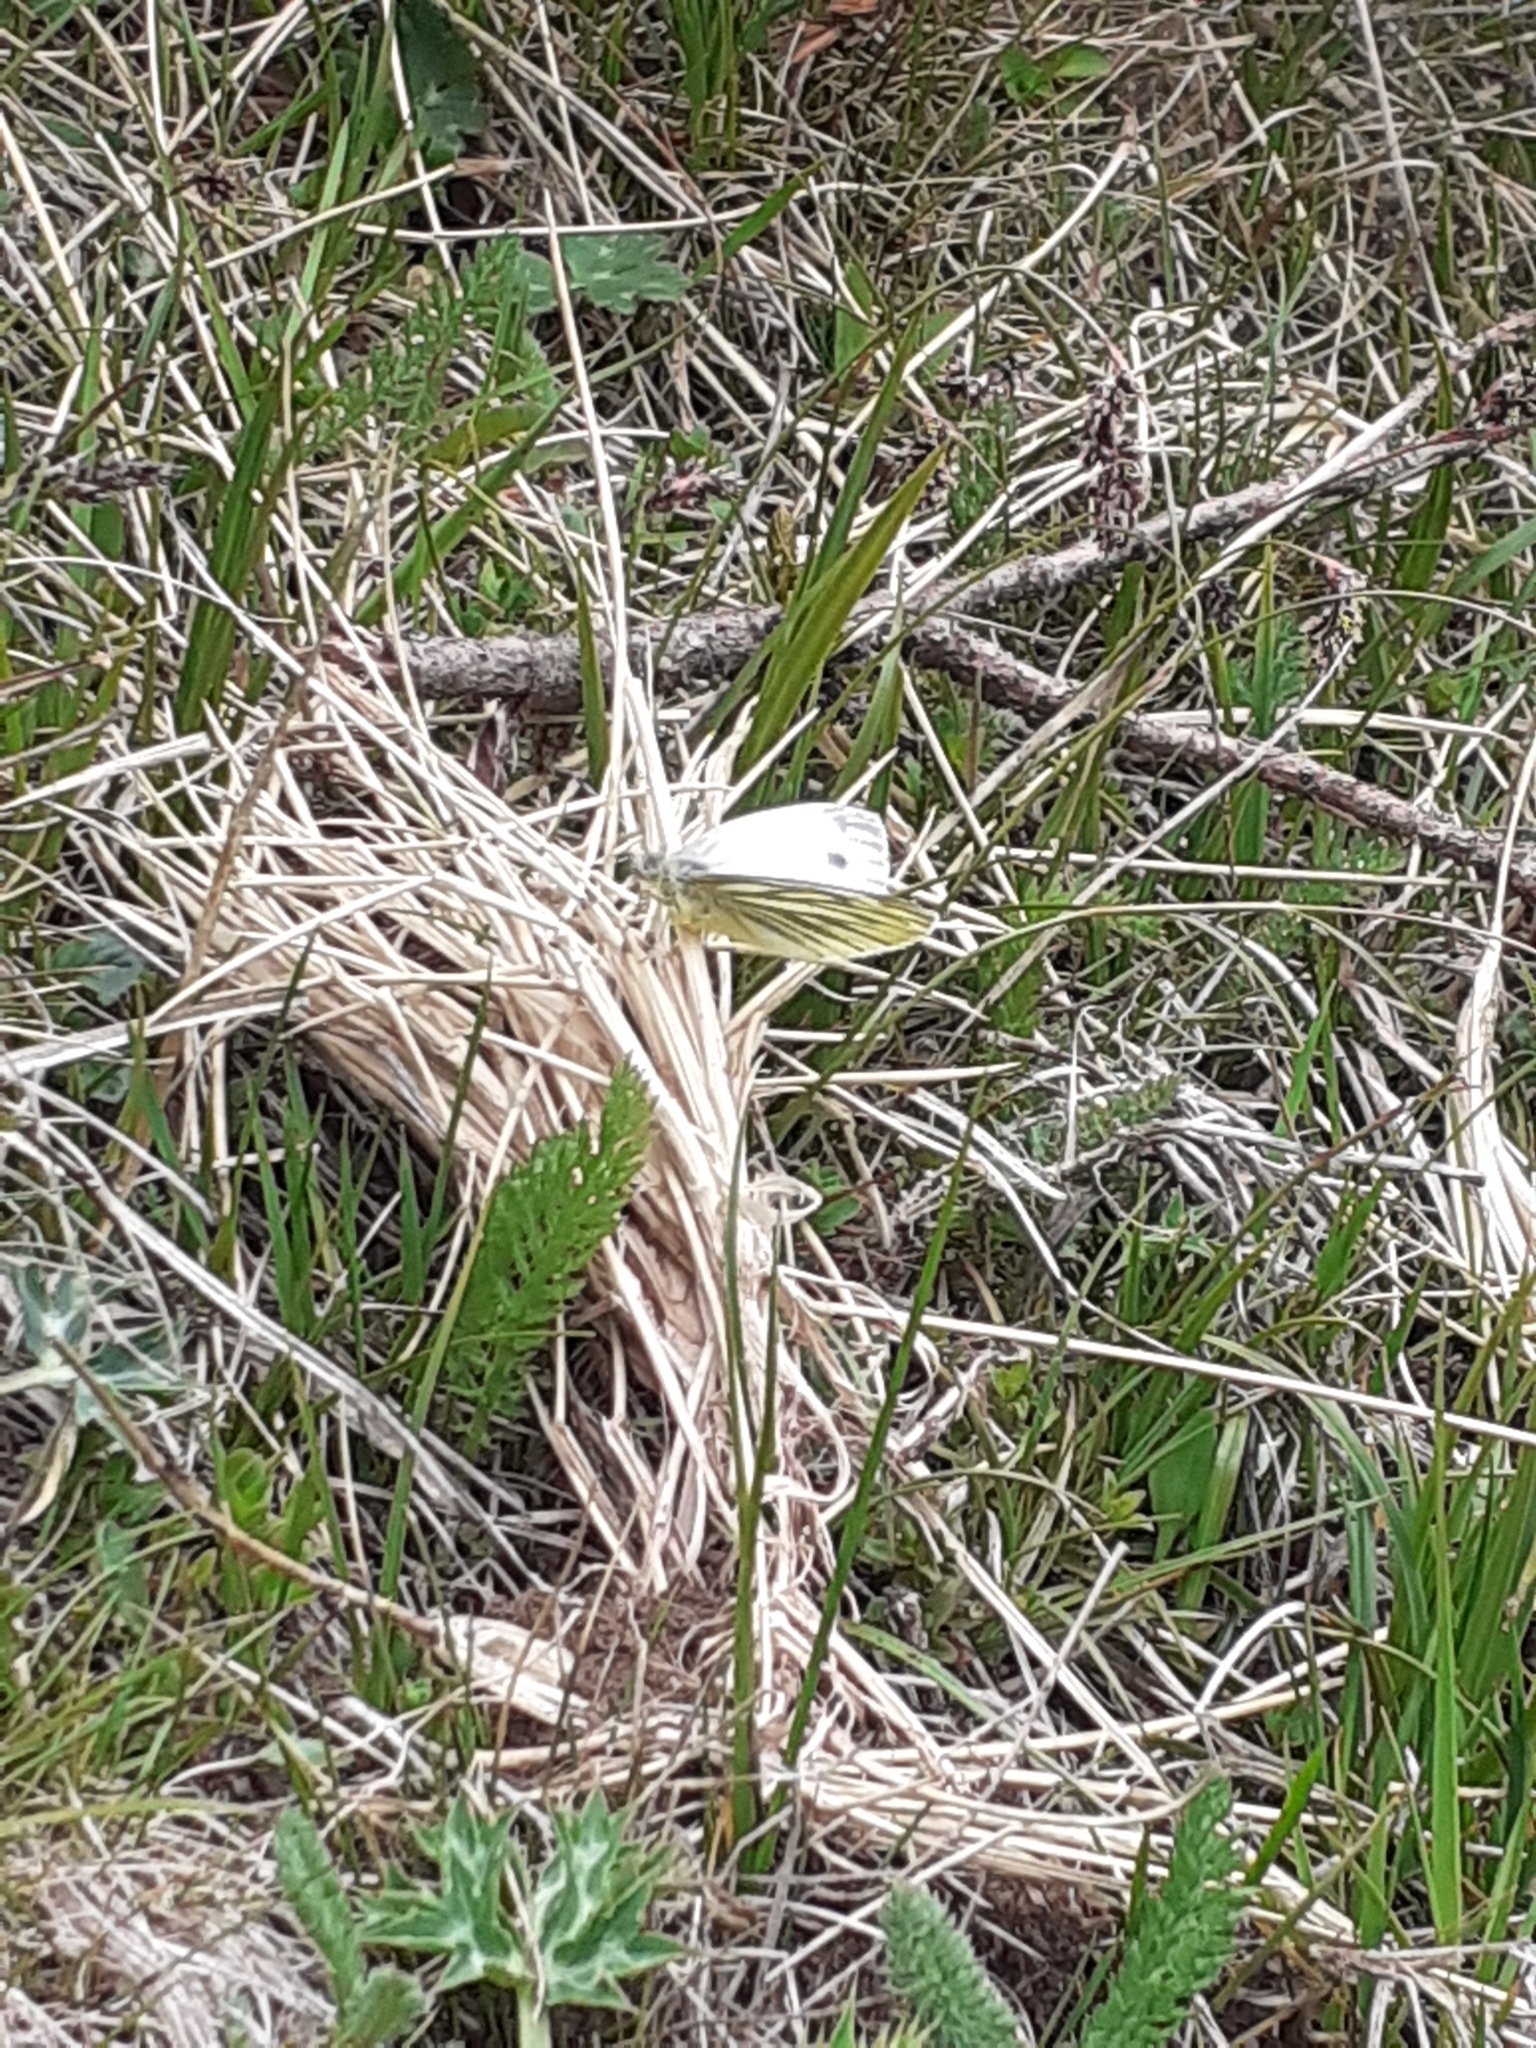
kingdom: Animalia
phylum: Arthropoda
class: Insecta
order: Lepidoptera
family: Pieridae
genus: Pieris
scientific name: Pieris napi
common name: Green-veined white
